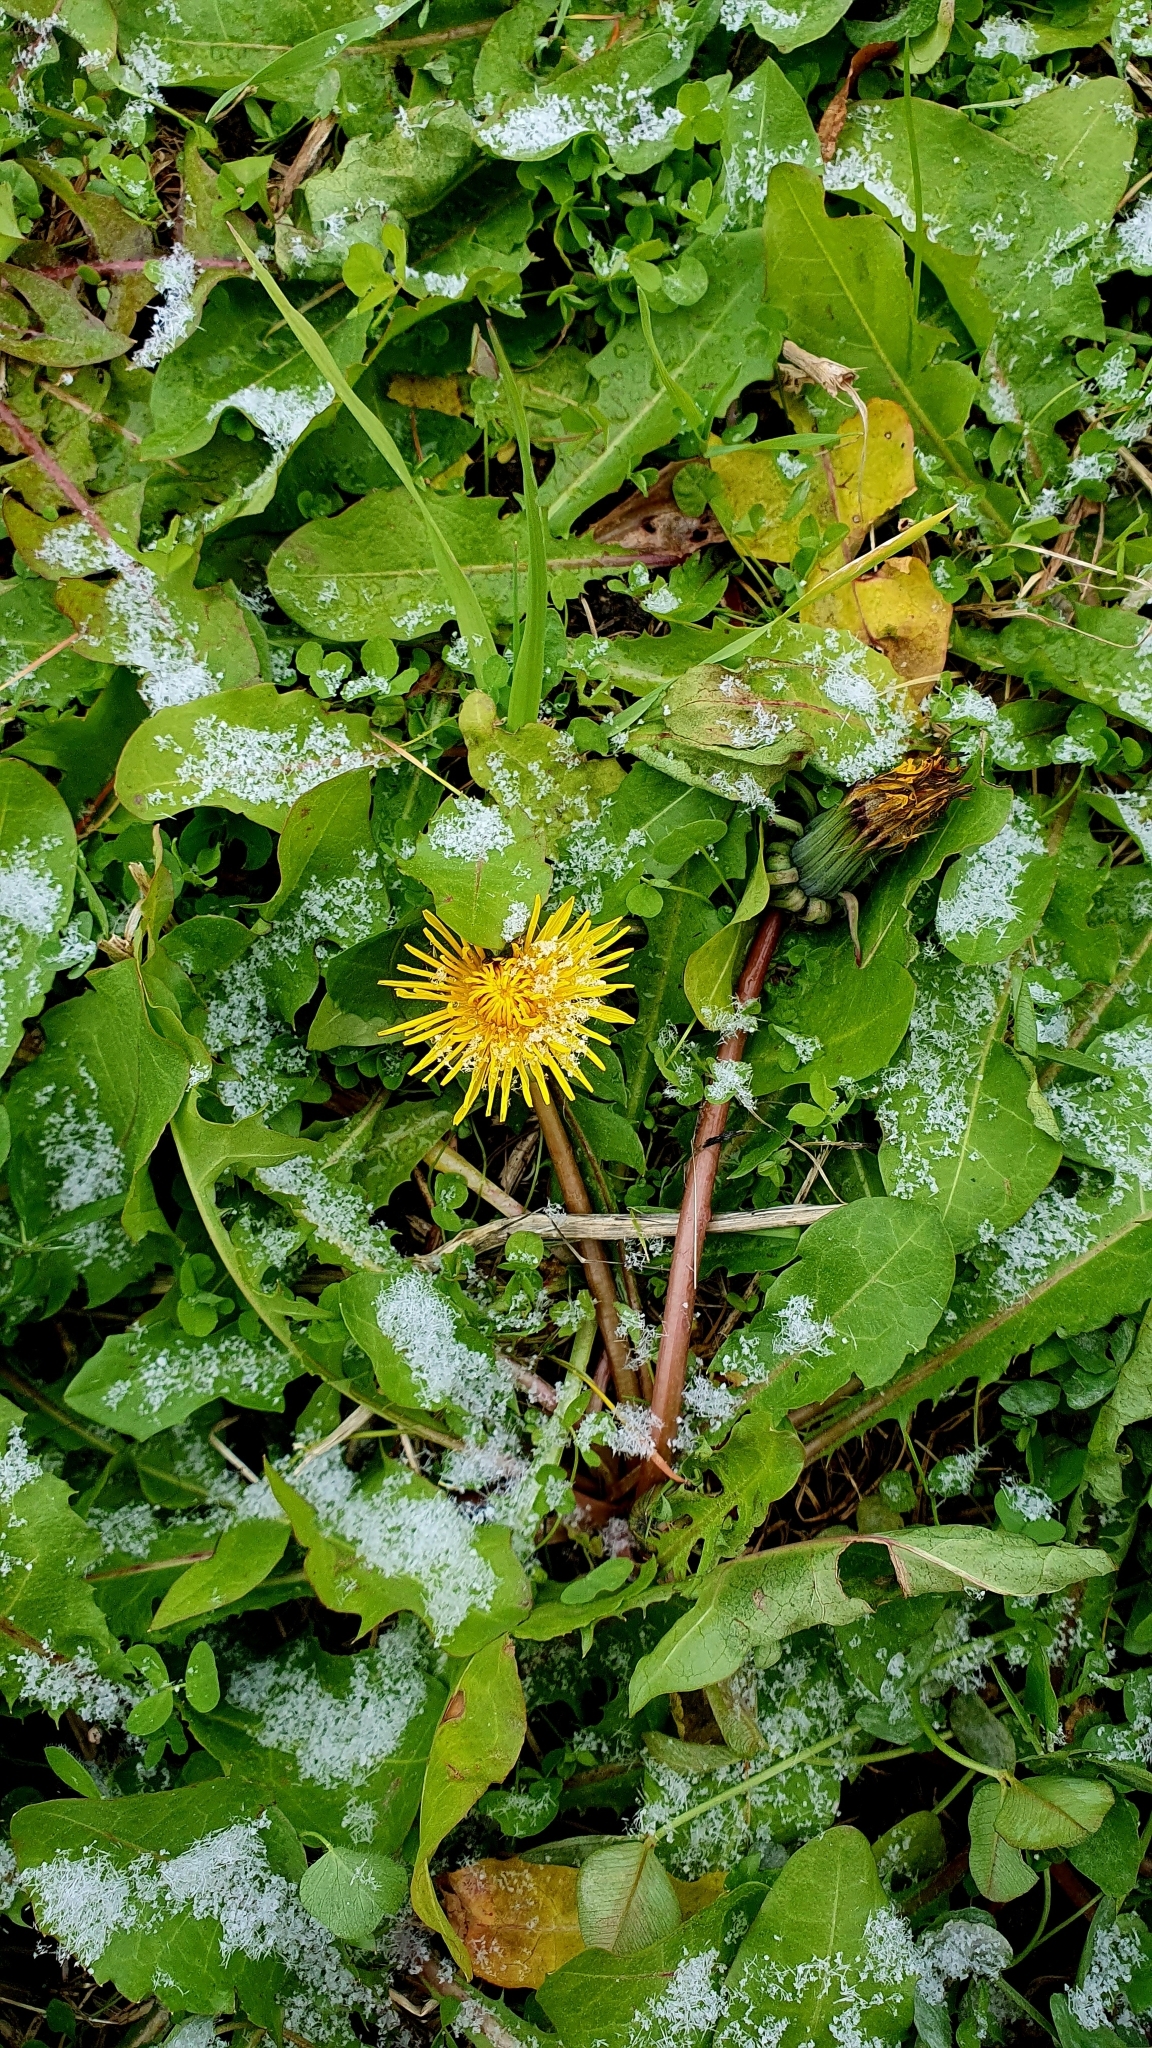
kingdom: Plantae
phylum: Tracheophyta
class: Magnoliopsida
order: Asterales
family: Asteraceae
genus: Taraxacum
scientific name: Taraxacum officinale
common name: Common dandelion
